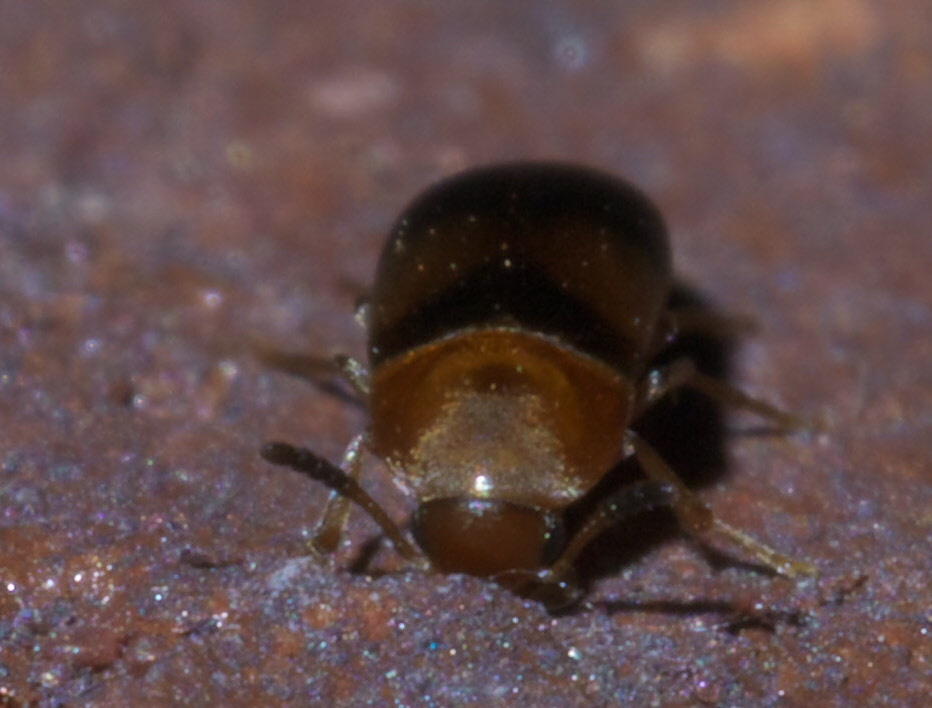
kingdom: Animalia
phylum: Arthropoda
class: Insecta
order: Coleoptera
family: Scraptiidae
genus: Pentaria
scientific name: Pentaria trifasciata
